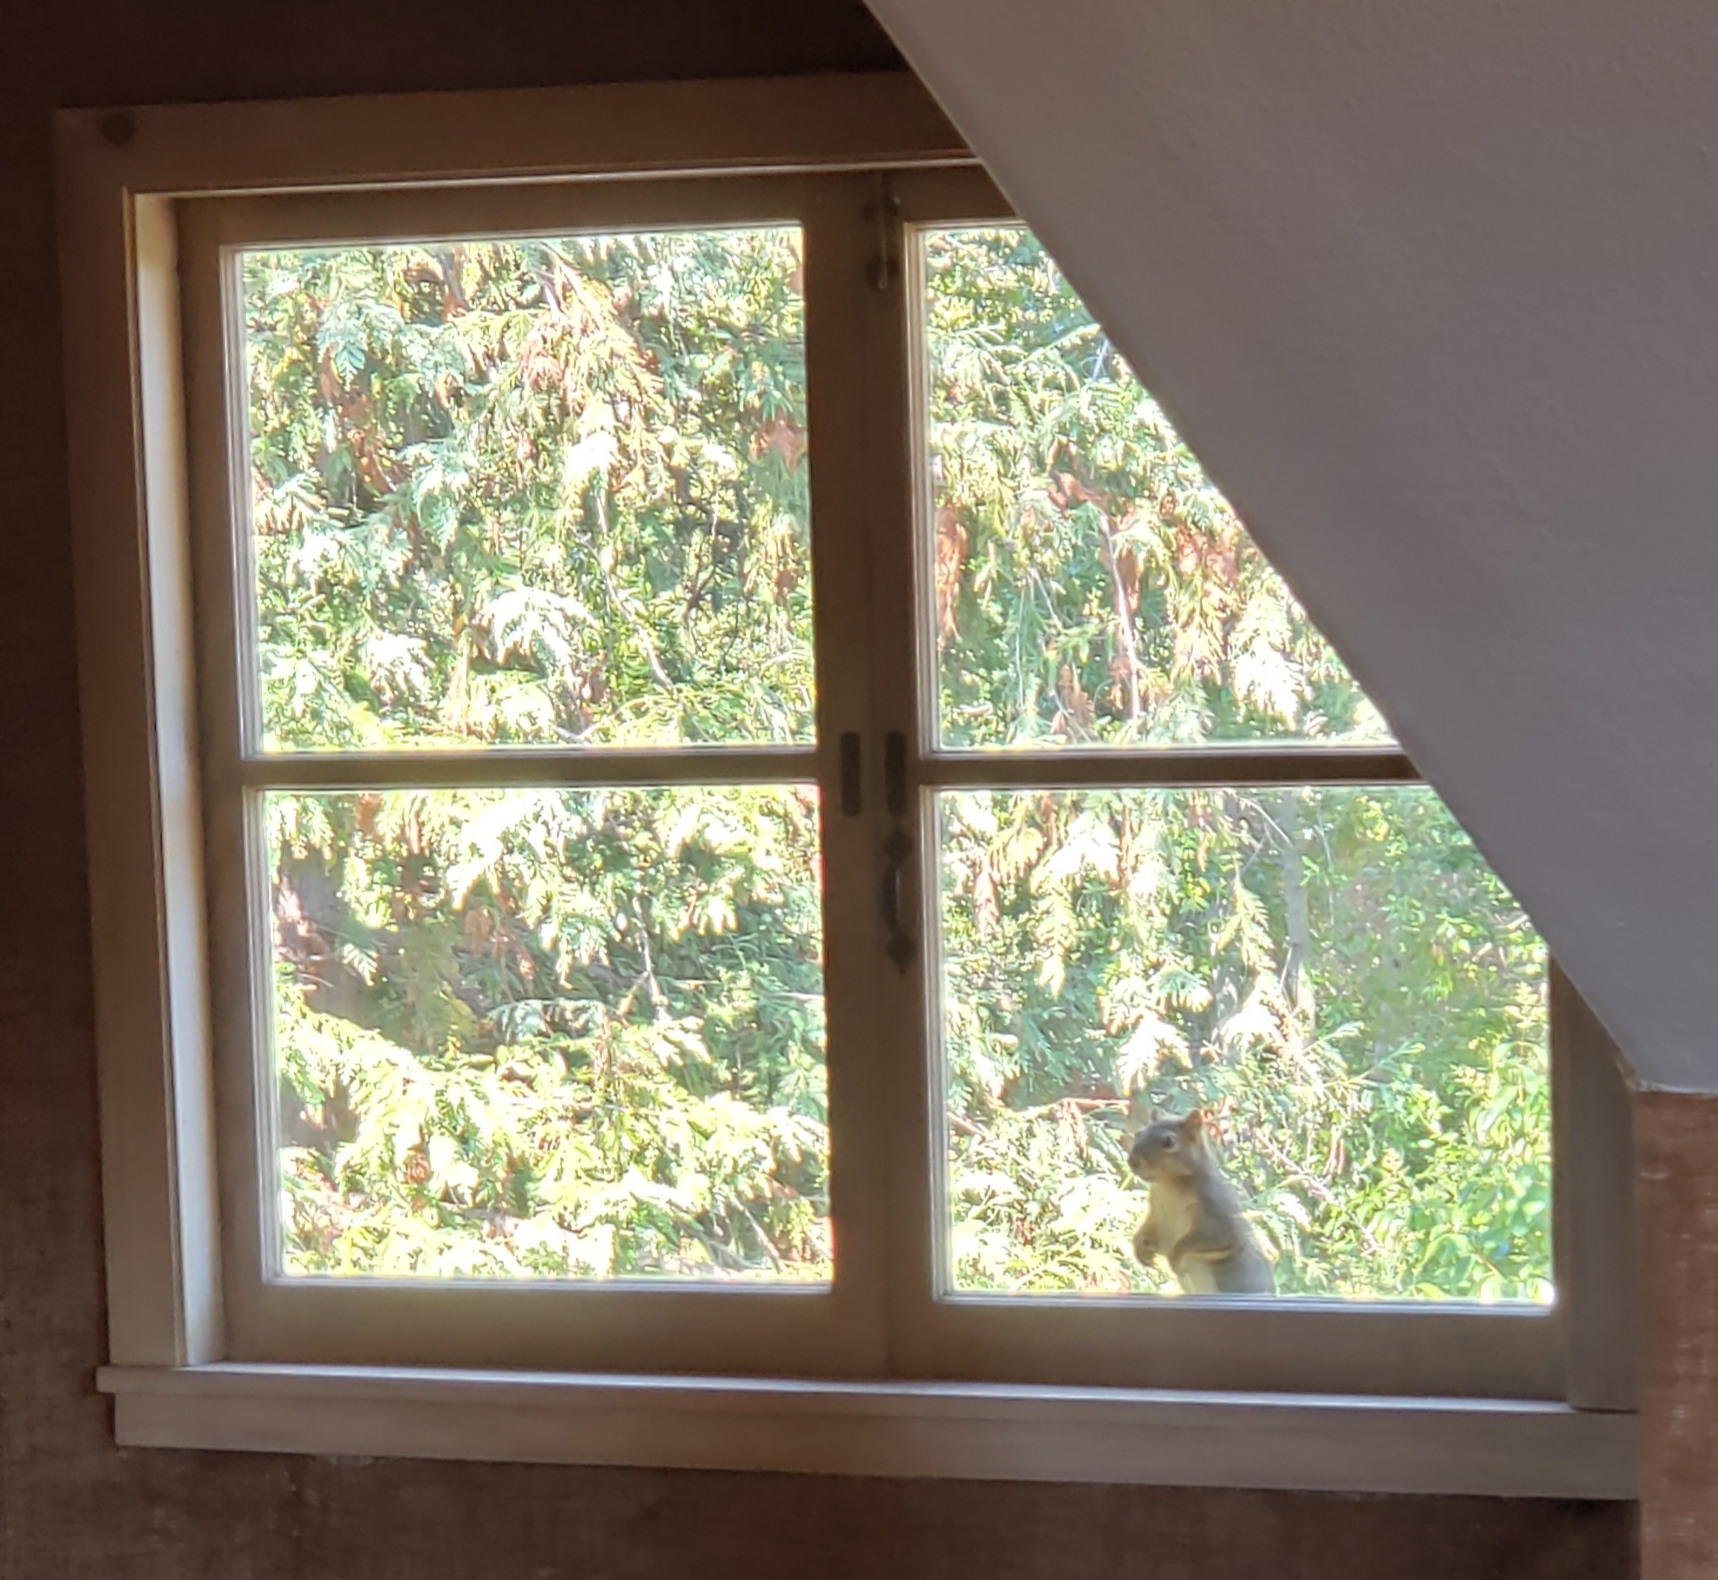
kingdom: Animalia
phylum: Chordata
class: Mammalia
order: Rodentia
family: Sciuridae
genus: Sciurus
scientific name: Sciurus niger
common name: Fox squirrel
